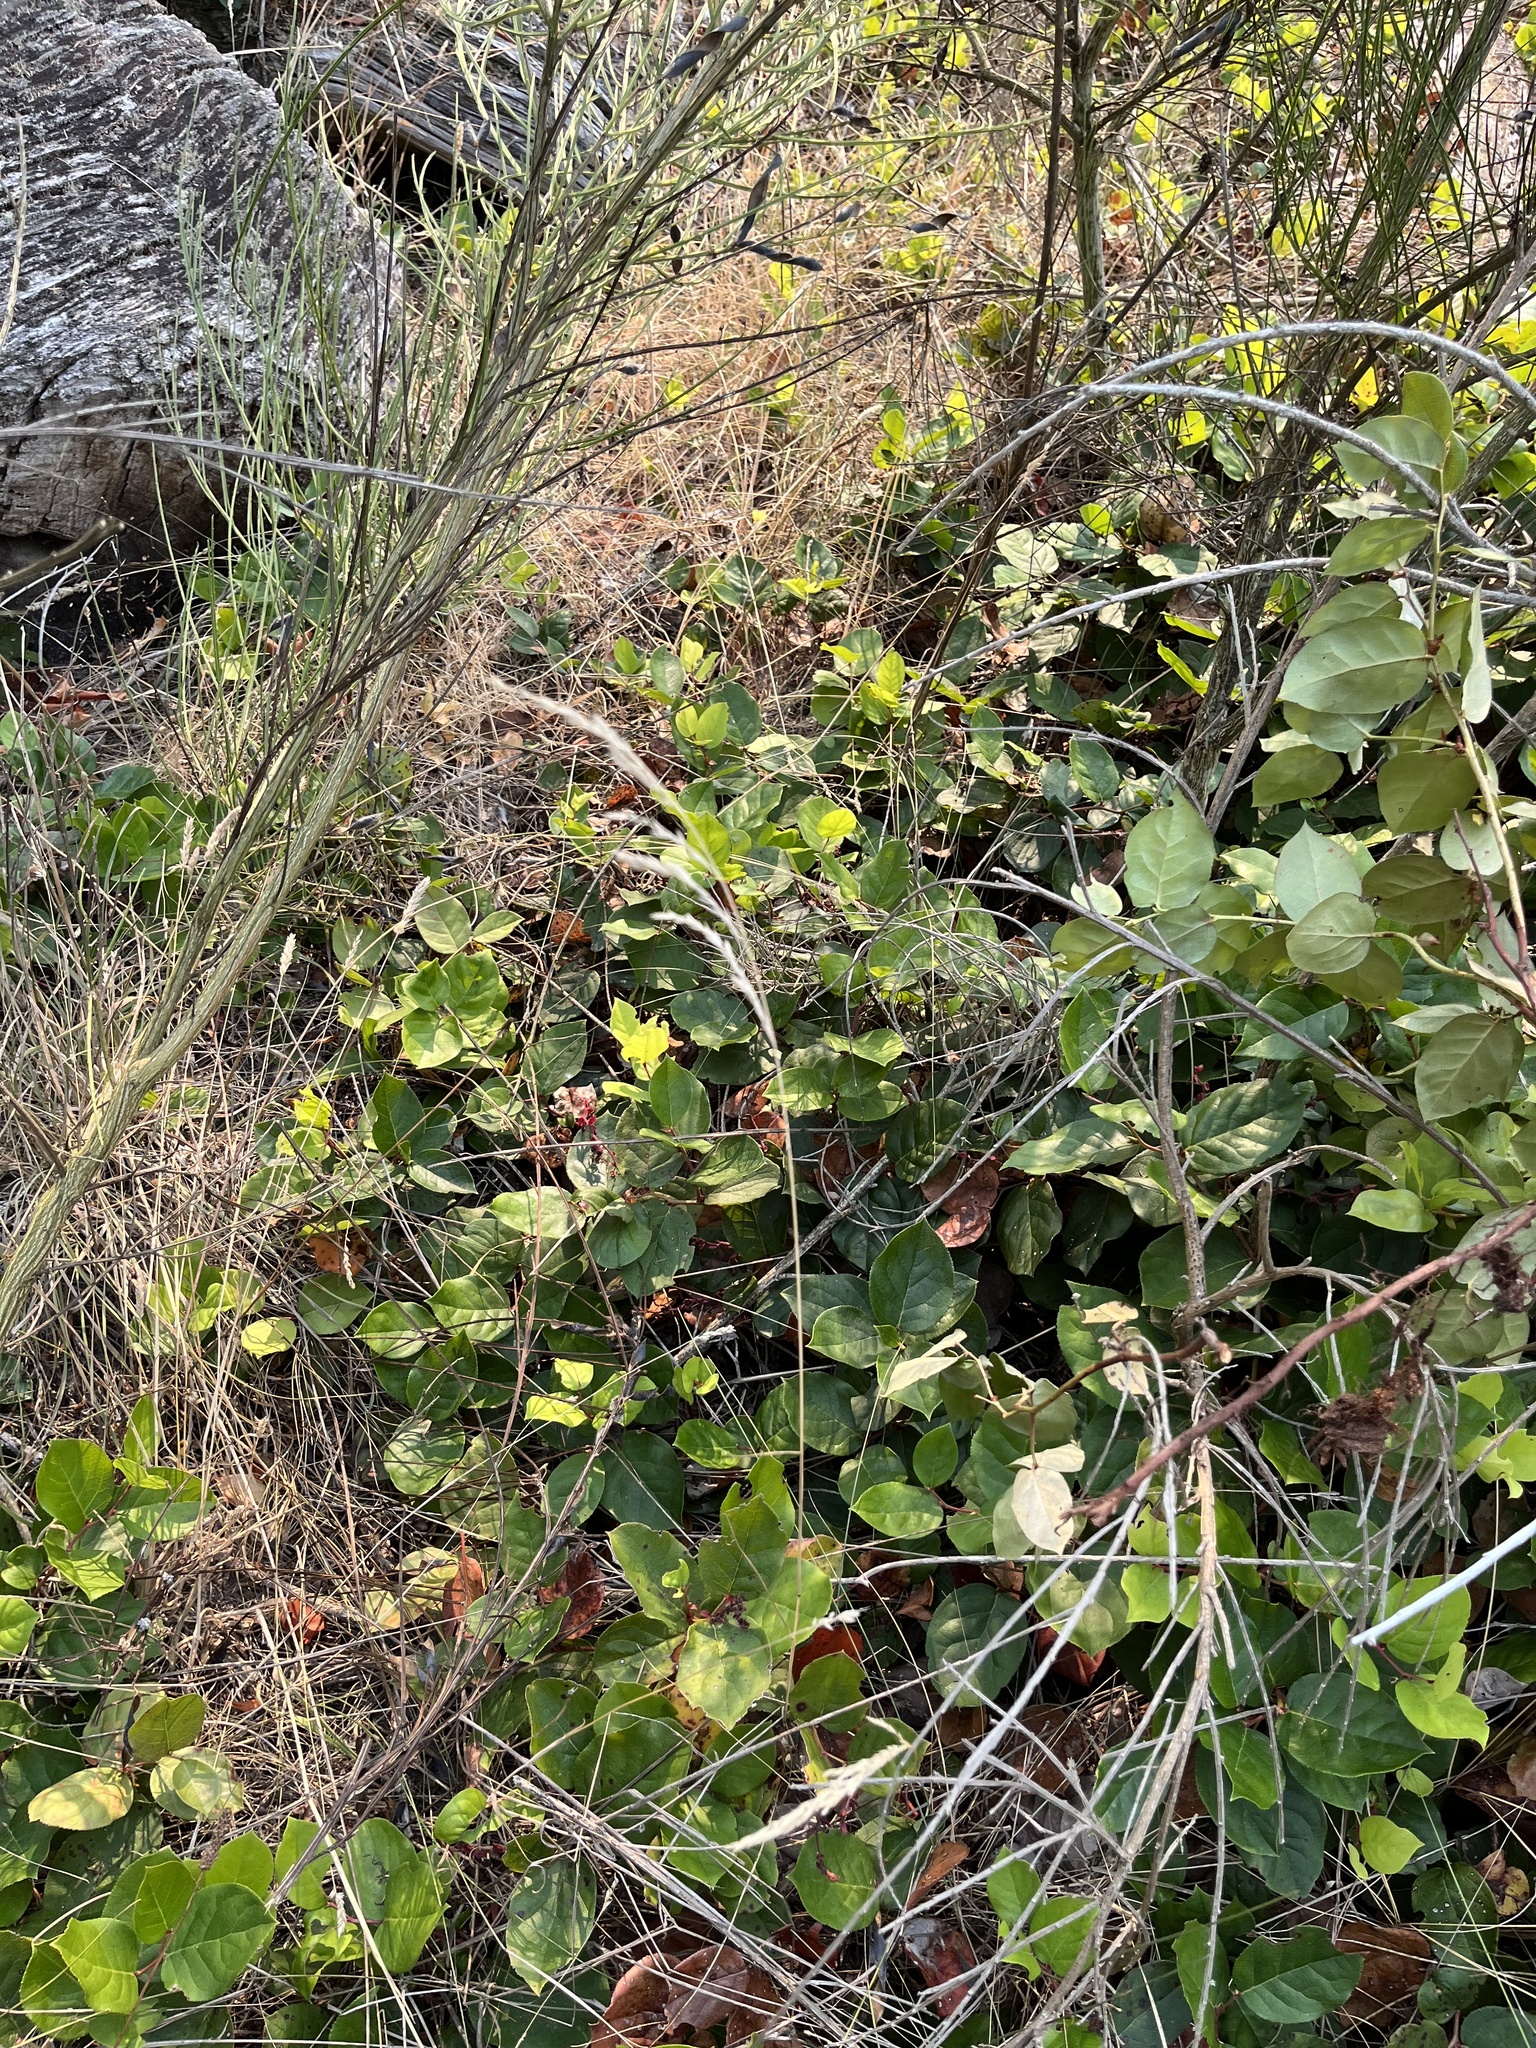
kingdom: Plantae
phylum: Tracheophyta
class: Magnoliopsida
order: Ericales
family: Ericaceae
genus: Gaultheria
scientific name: Gaultheria shallon
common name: Shallon
